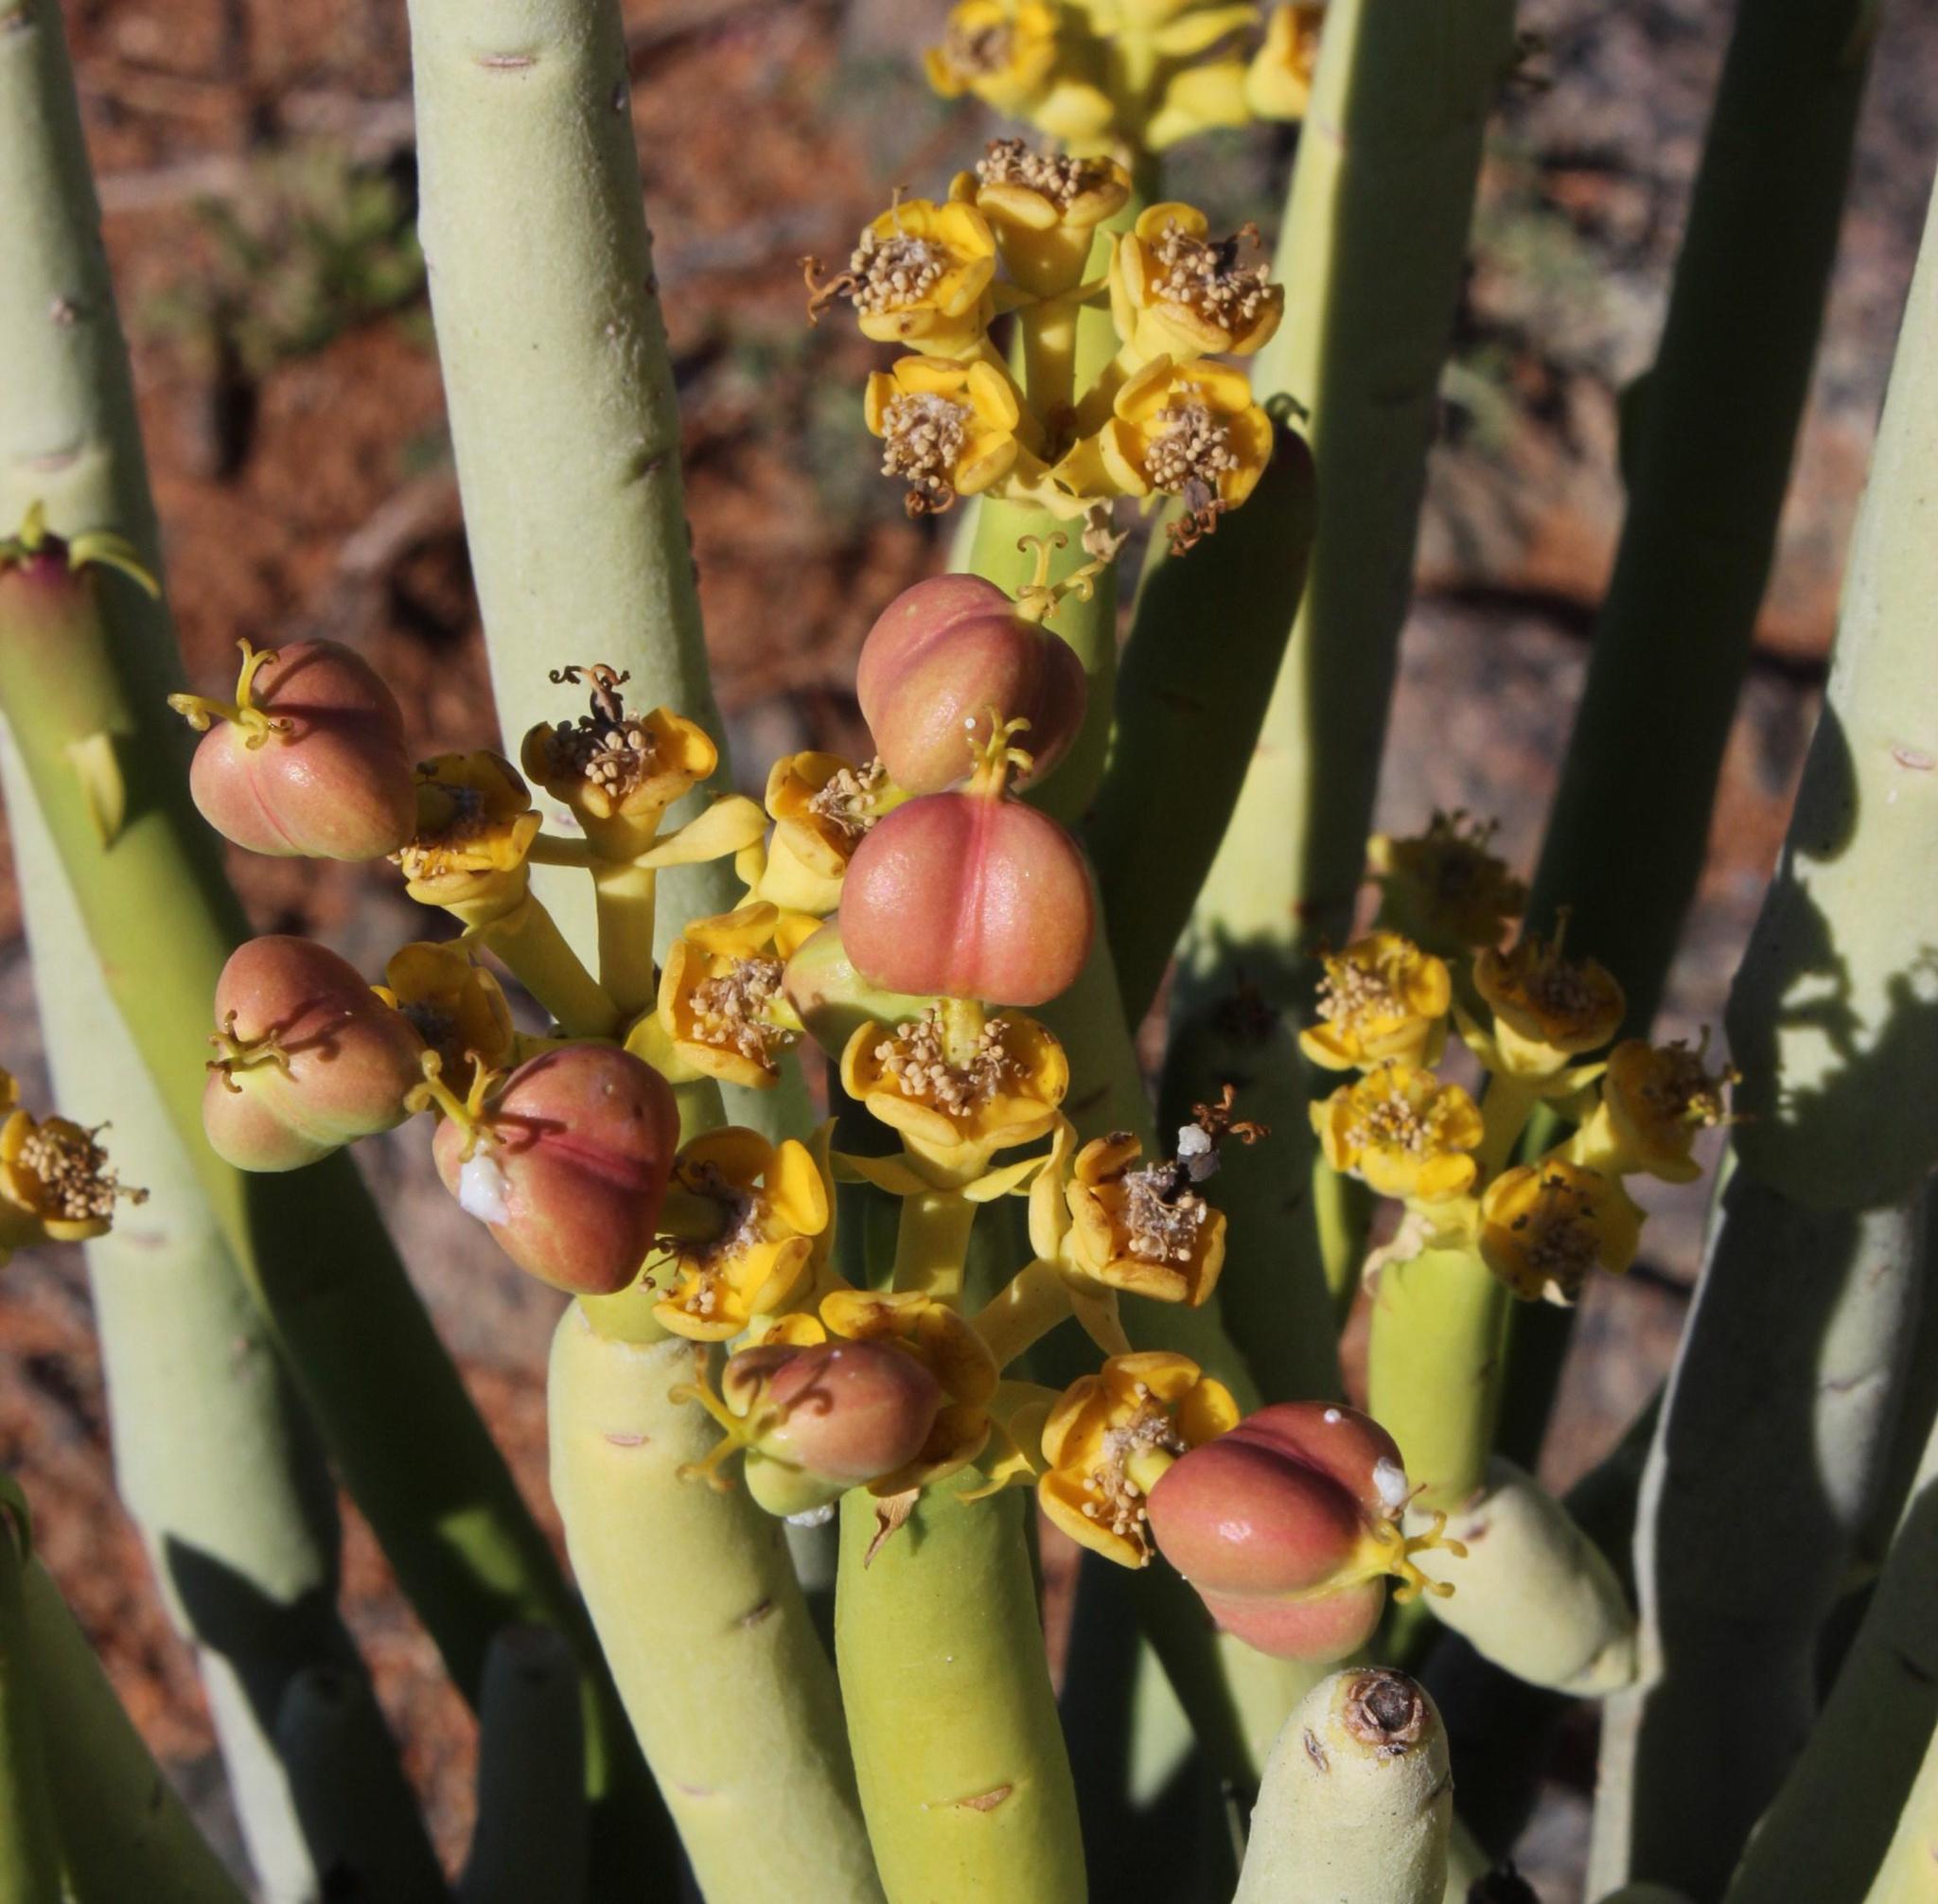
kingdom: Plantae
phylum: Tracheophyta
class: Magnoliopsida
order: Malpighiales
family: Euphorbiaceae
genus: Euphorbia
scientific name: Euphorbia stolonifera
